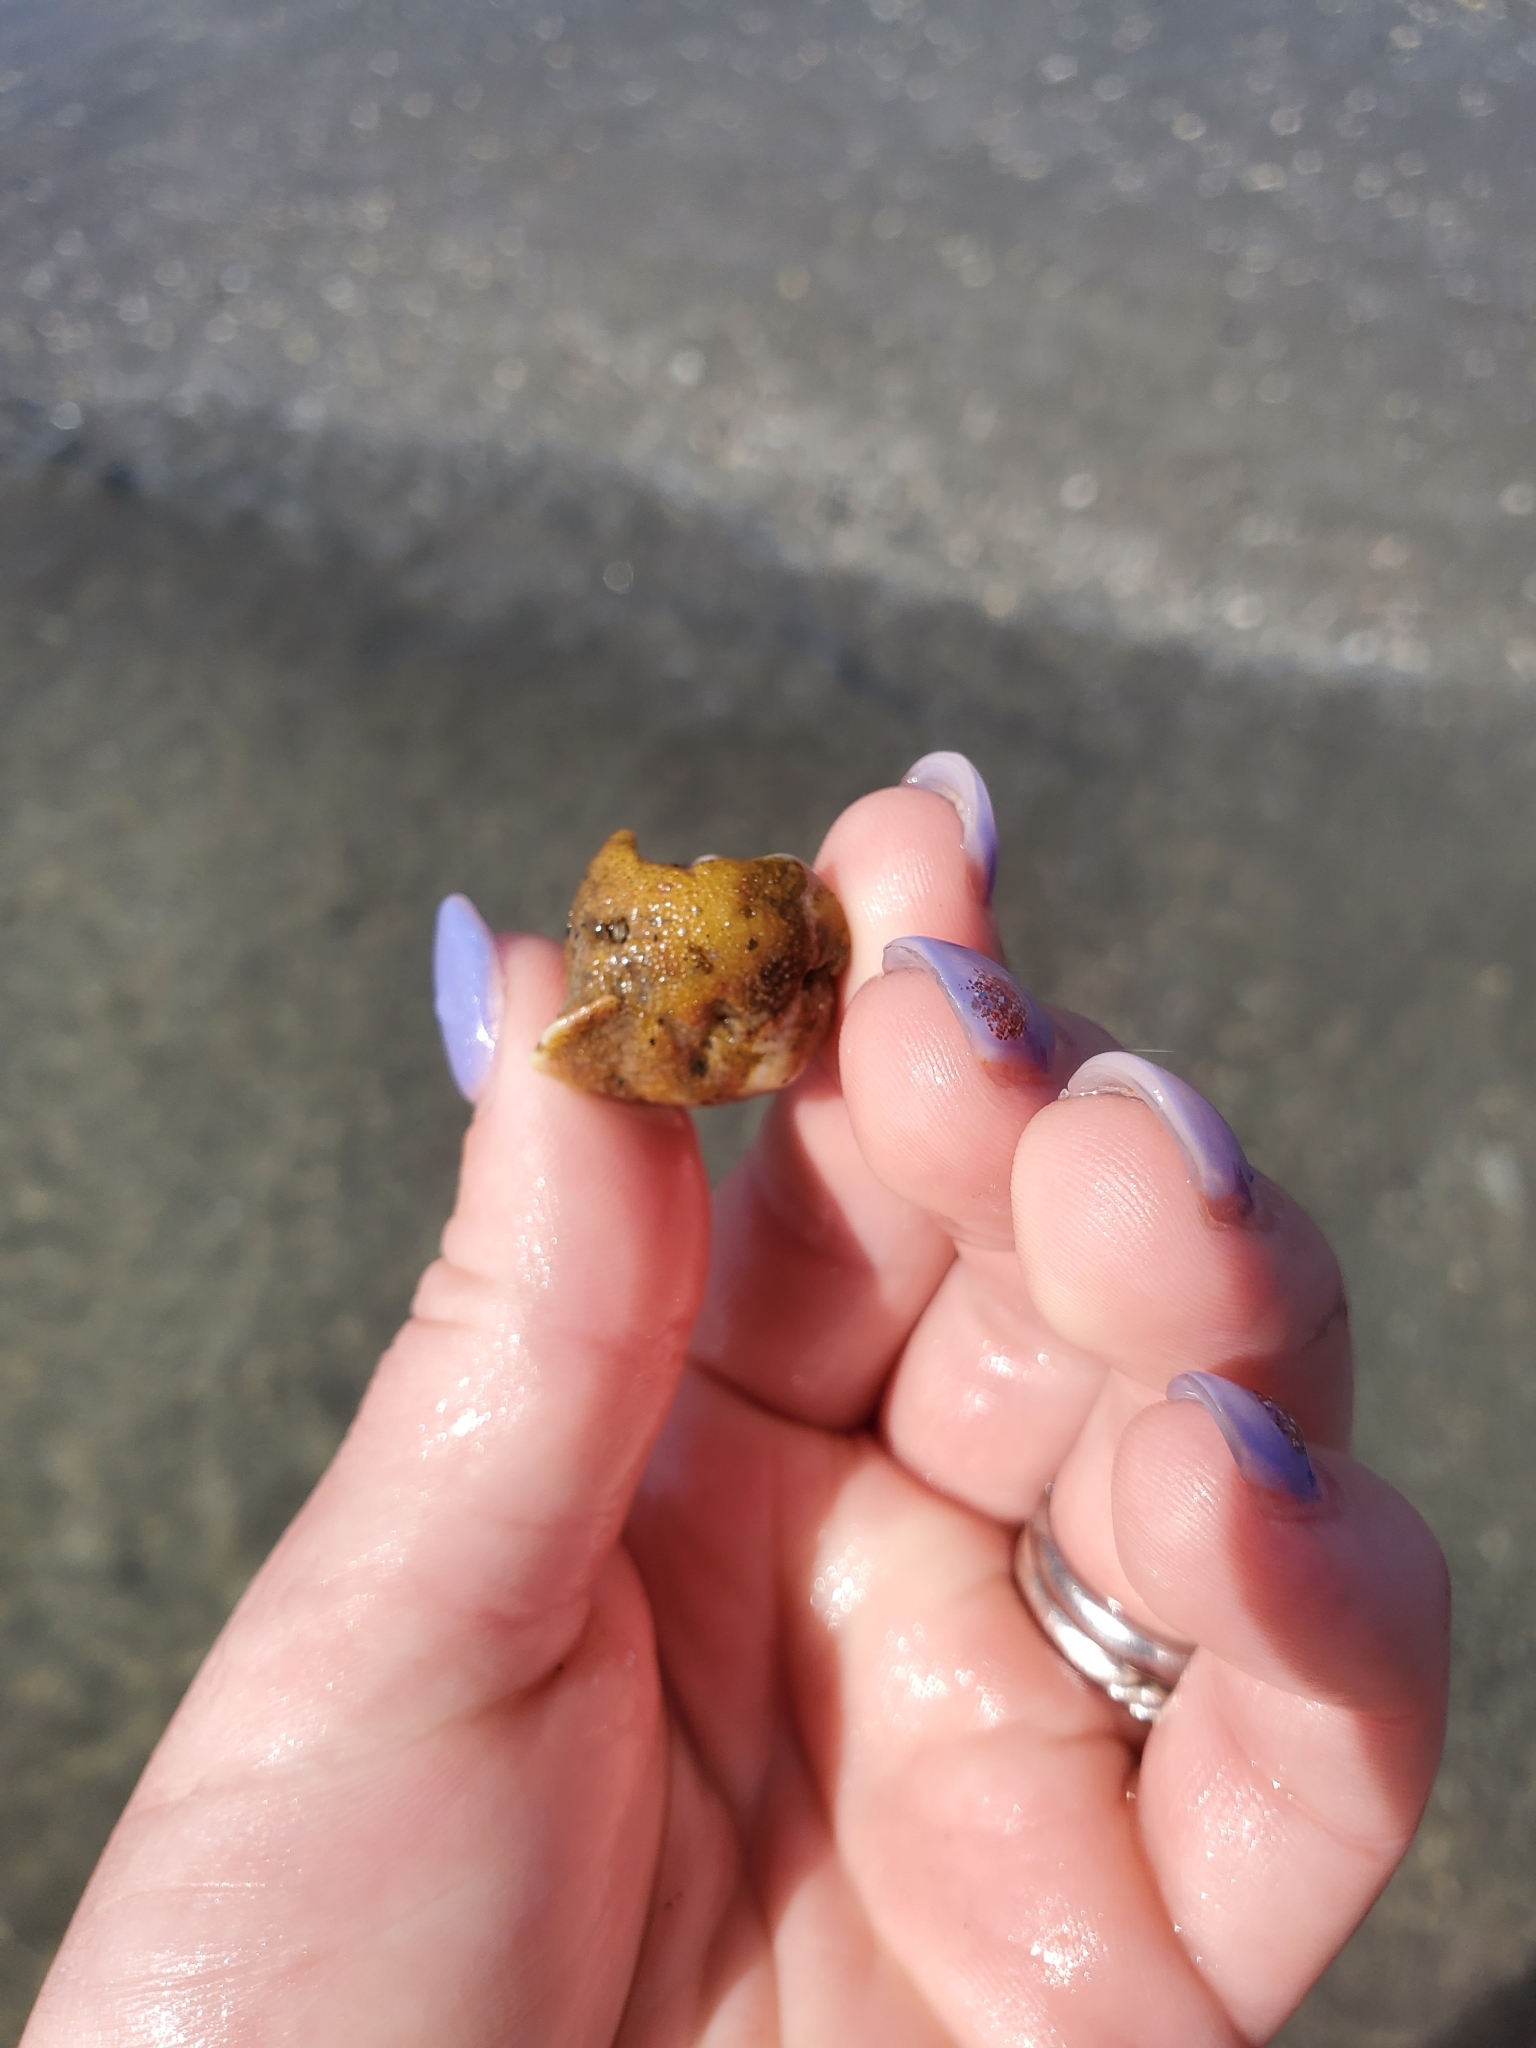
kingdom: Animalia
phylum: Arthropoda
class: Malacostraca
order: Decapoda
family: Paguridae
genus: Pagurus
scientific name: Pagurus longicarpus
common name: Long-armed hermit crab
